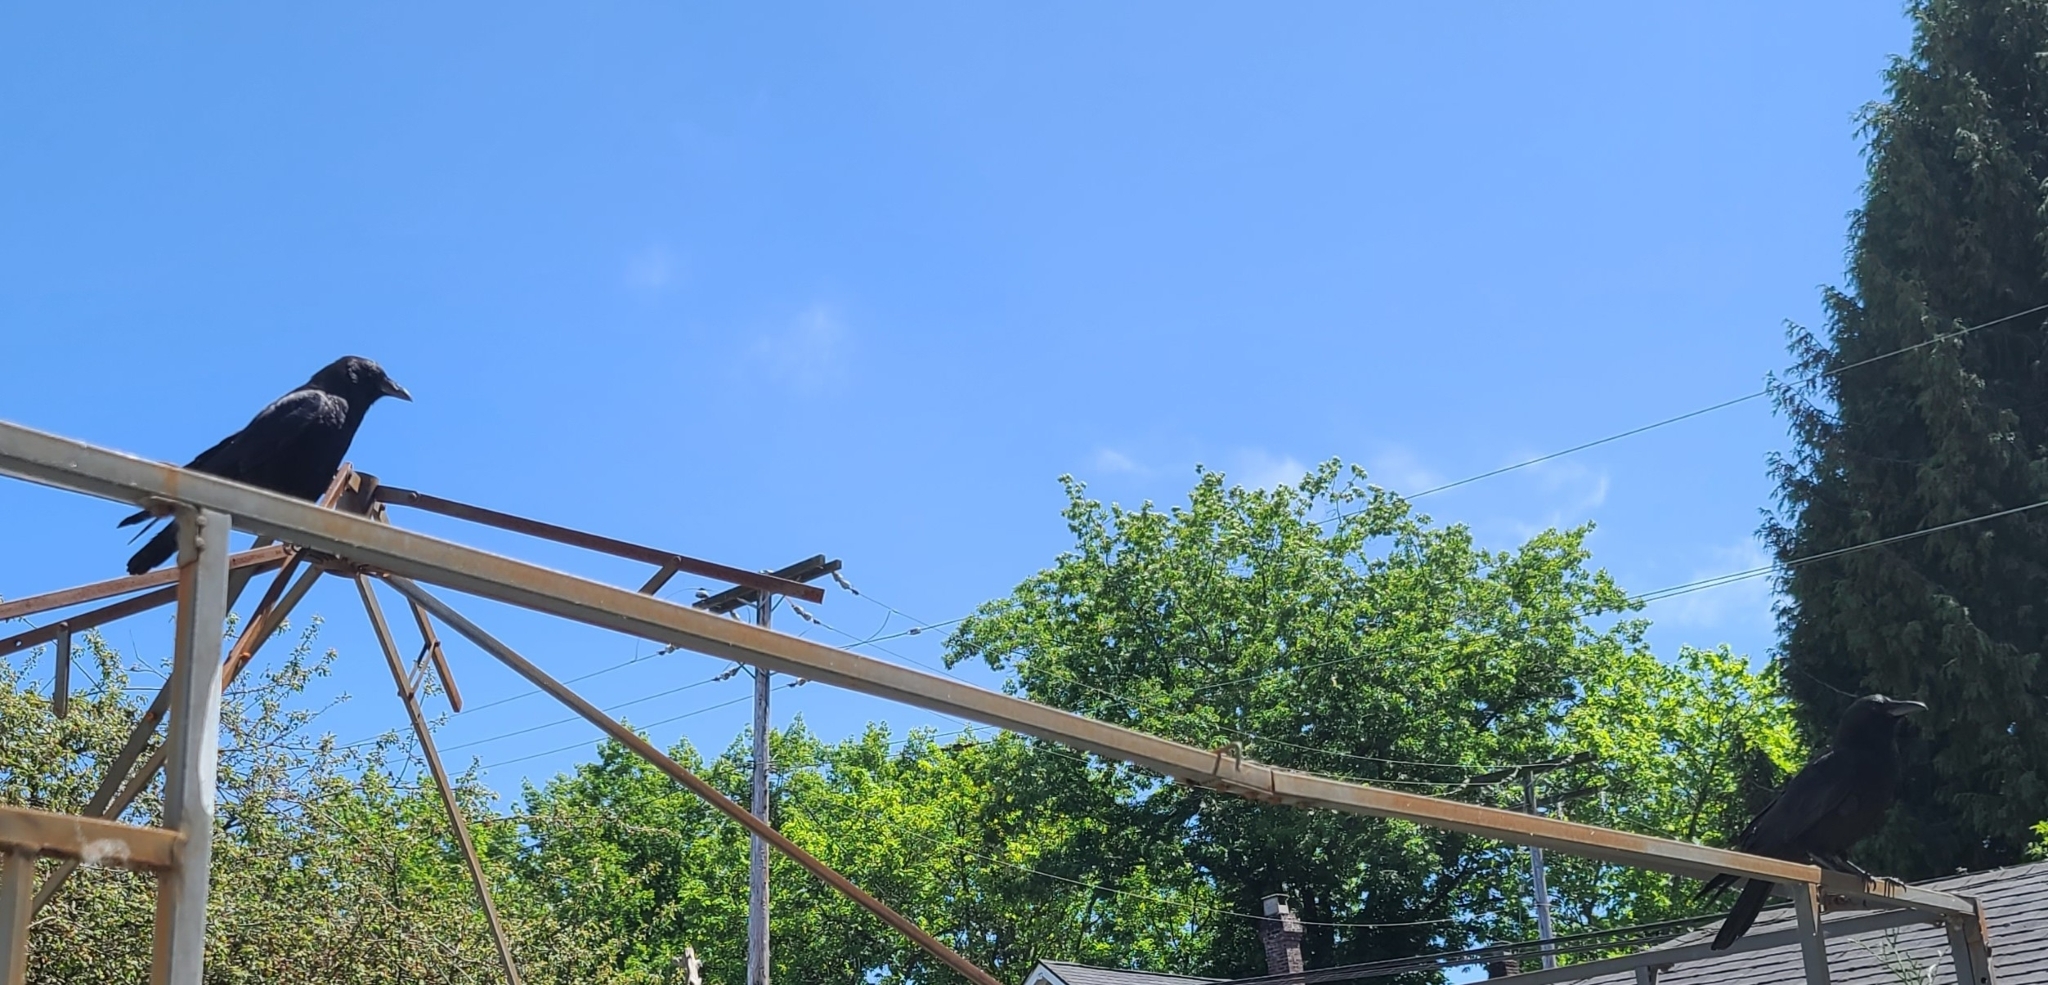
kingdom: Animalia
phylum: Chordata
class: Aves
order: Passeriformes
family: Corvidae
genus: Corvus
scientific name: Corvus brachyrhynchos
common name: American crow
